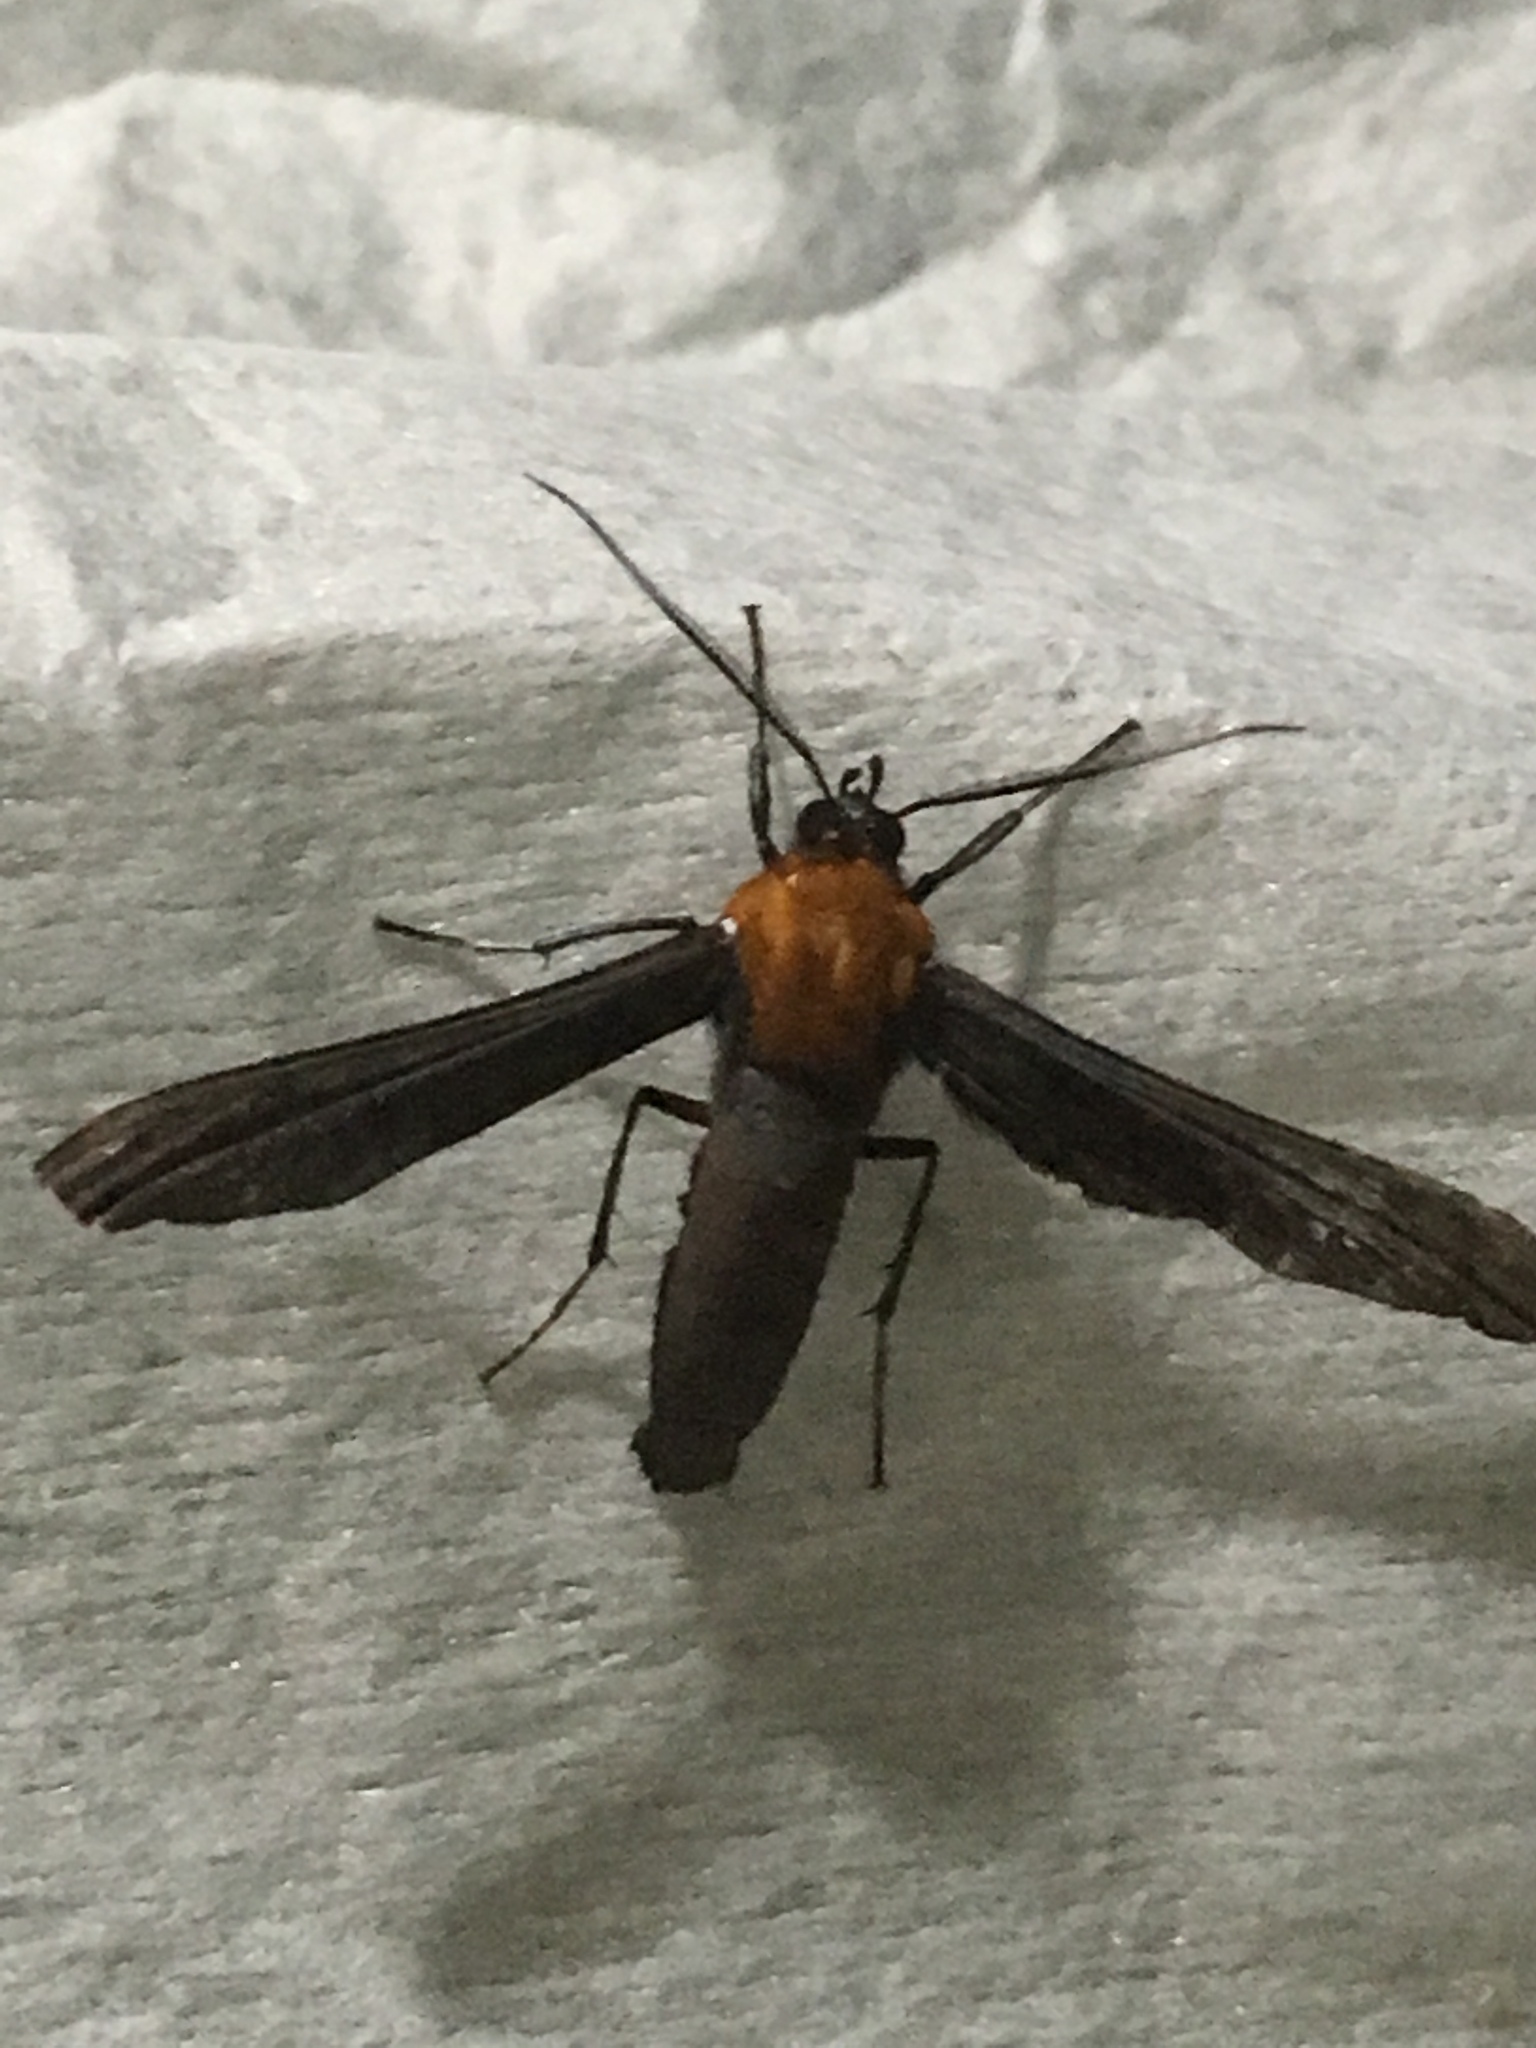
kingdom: Animalia
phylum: Arthropoda
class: Insecta
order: Lepidoptera
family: Erebidae
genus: Scena
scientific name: Scena potentia
